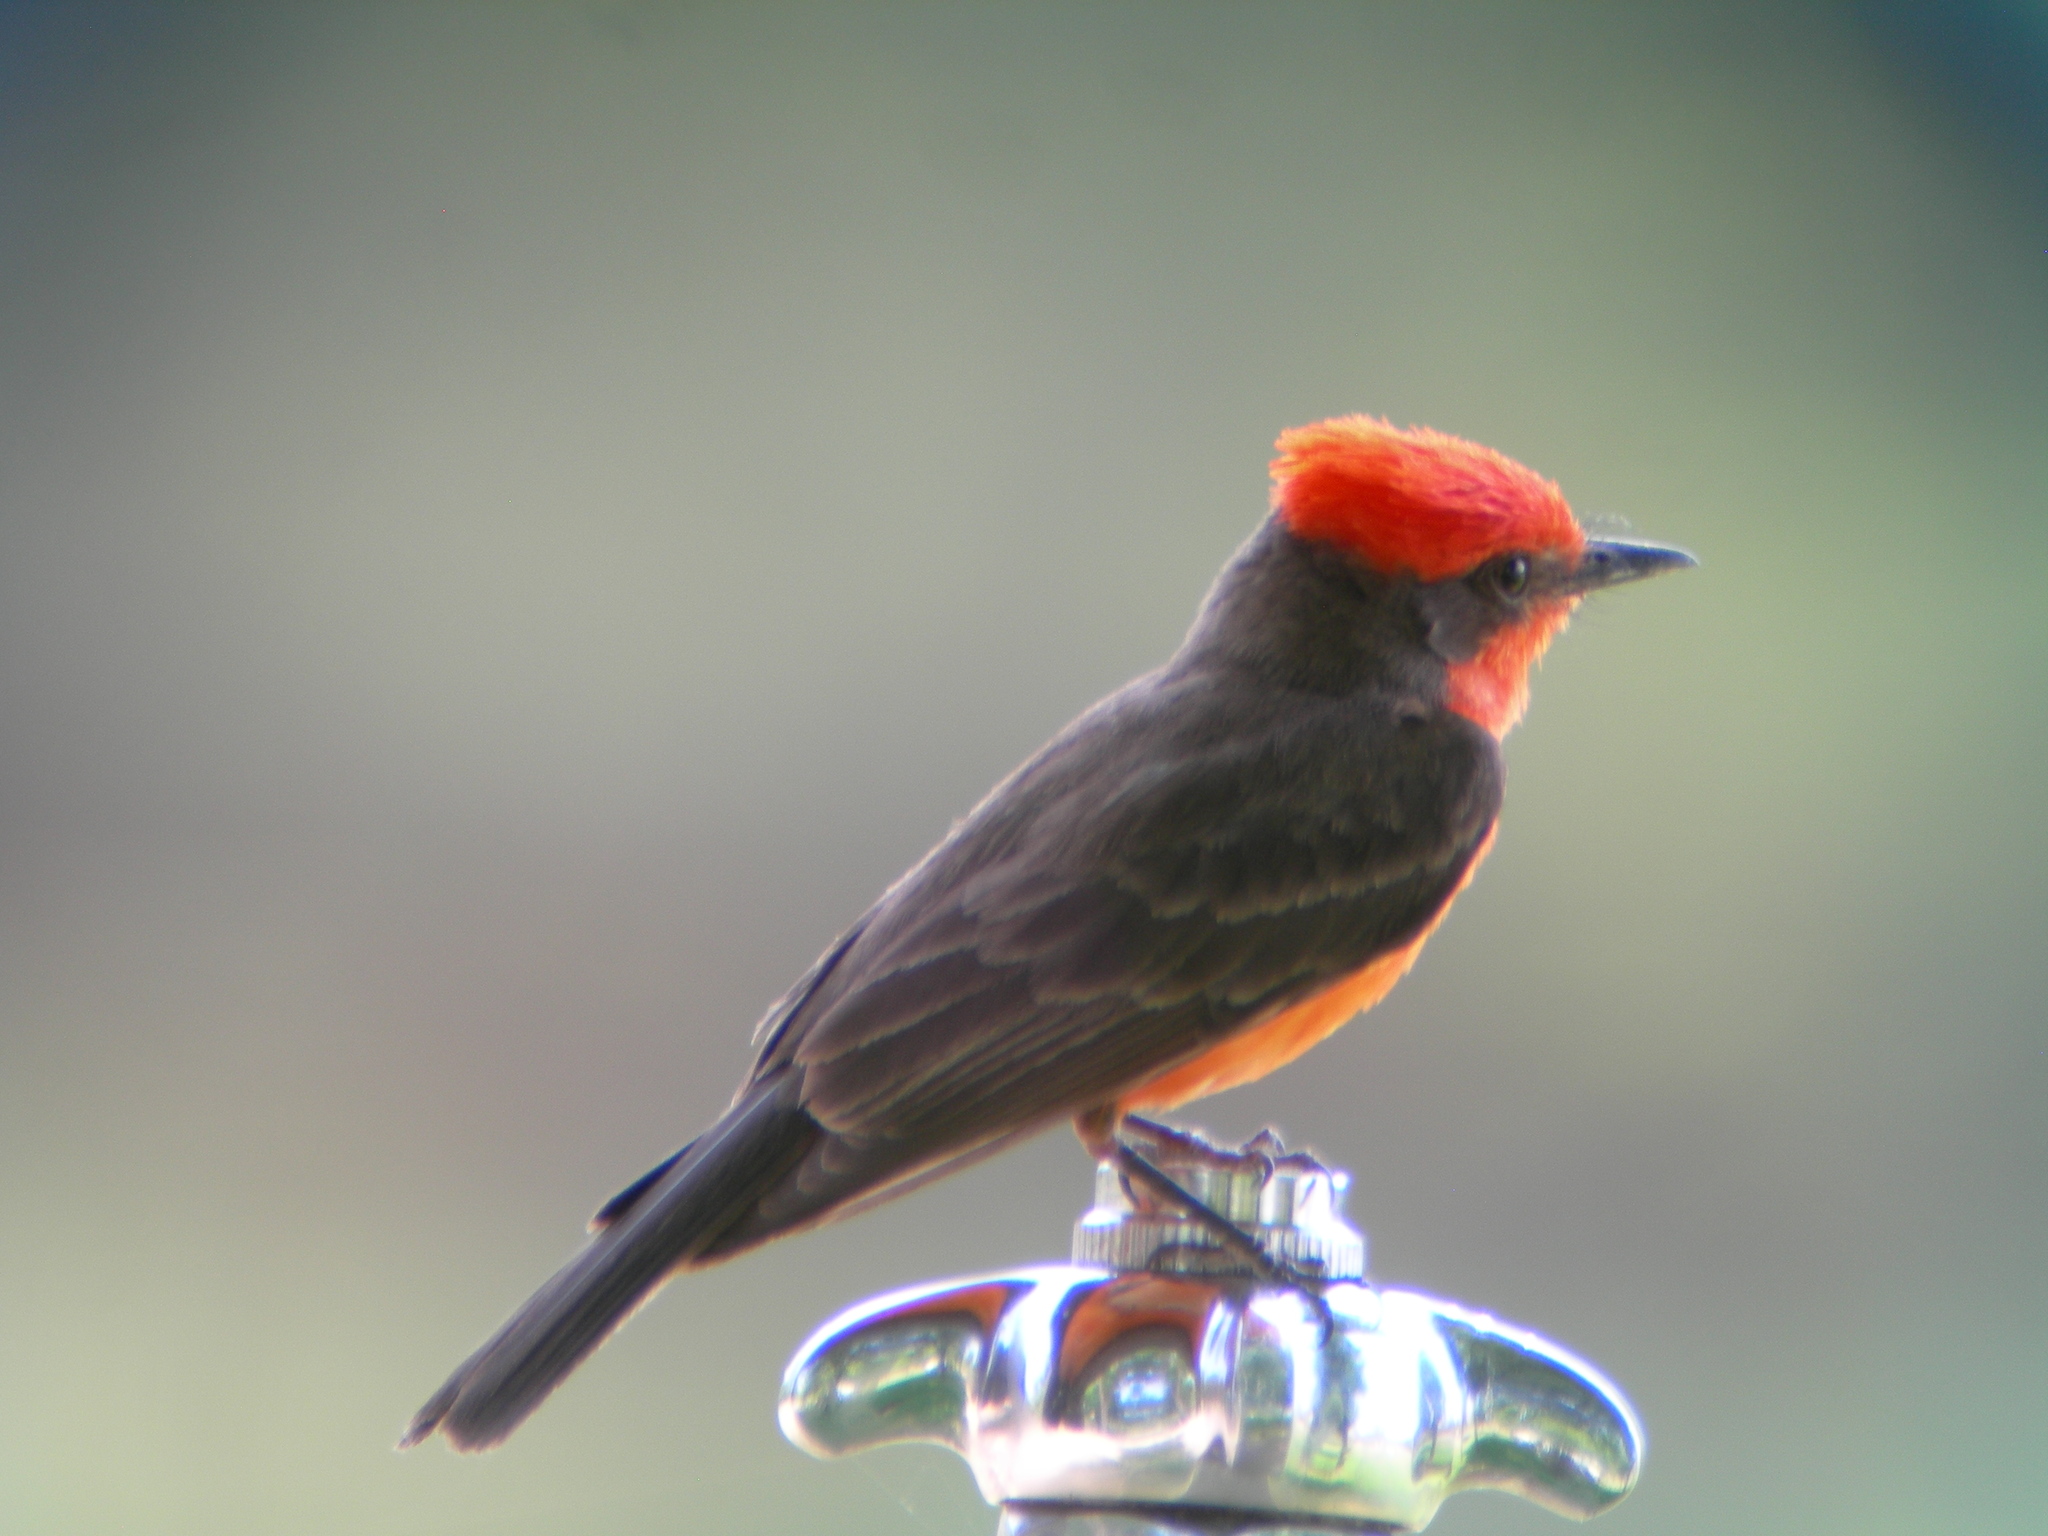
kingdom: Animalia
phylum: Chordata
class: Aves
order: Passeriformes
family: Tyrannidae
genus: Pyrocephalus
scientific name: Pyrocephalus rubinus
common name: Vermilion flycatcher
